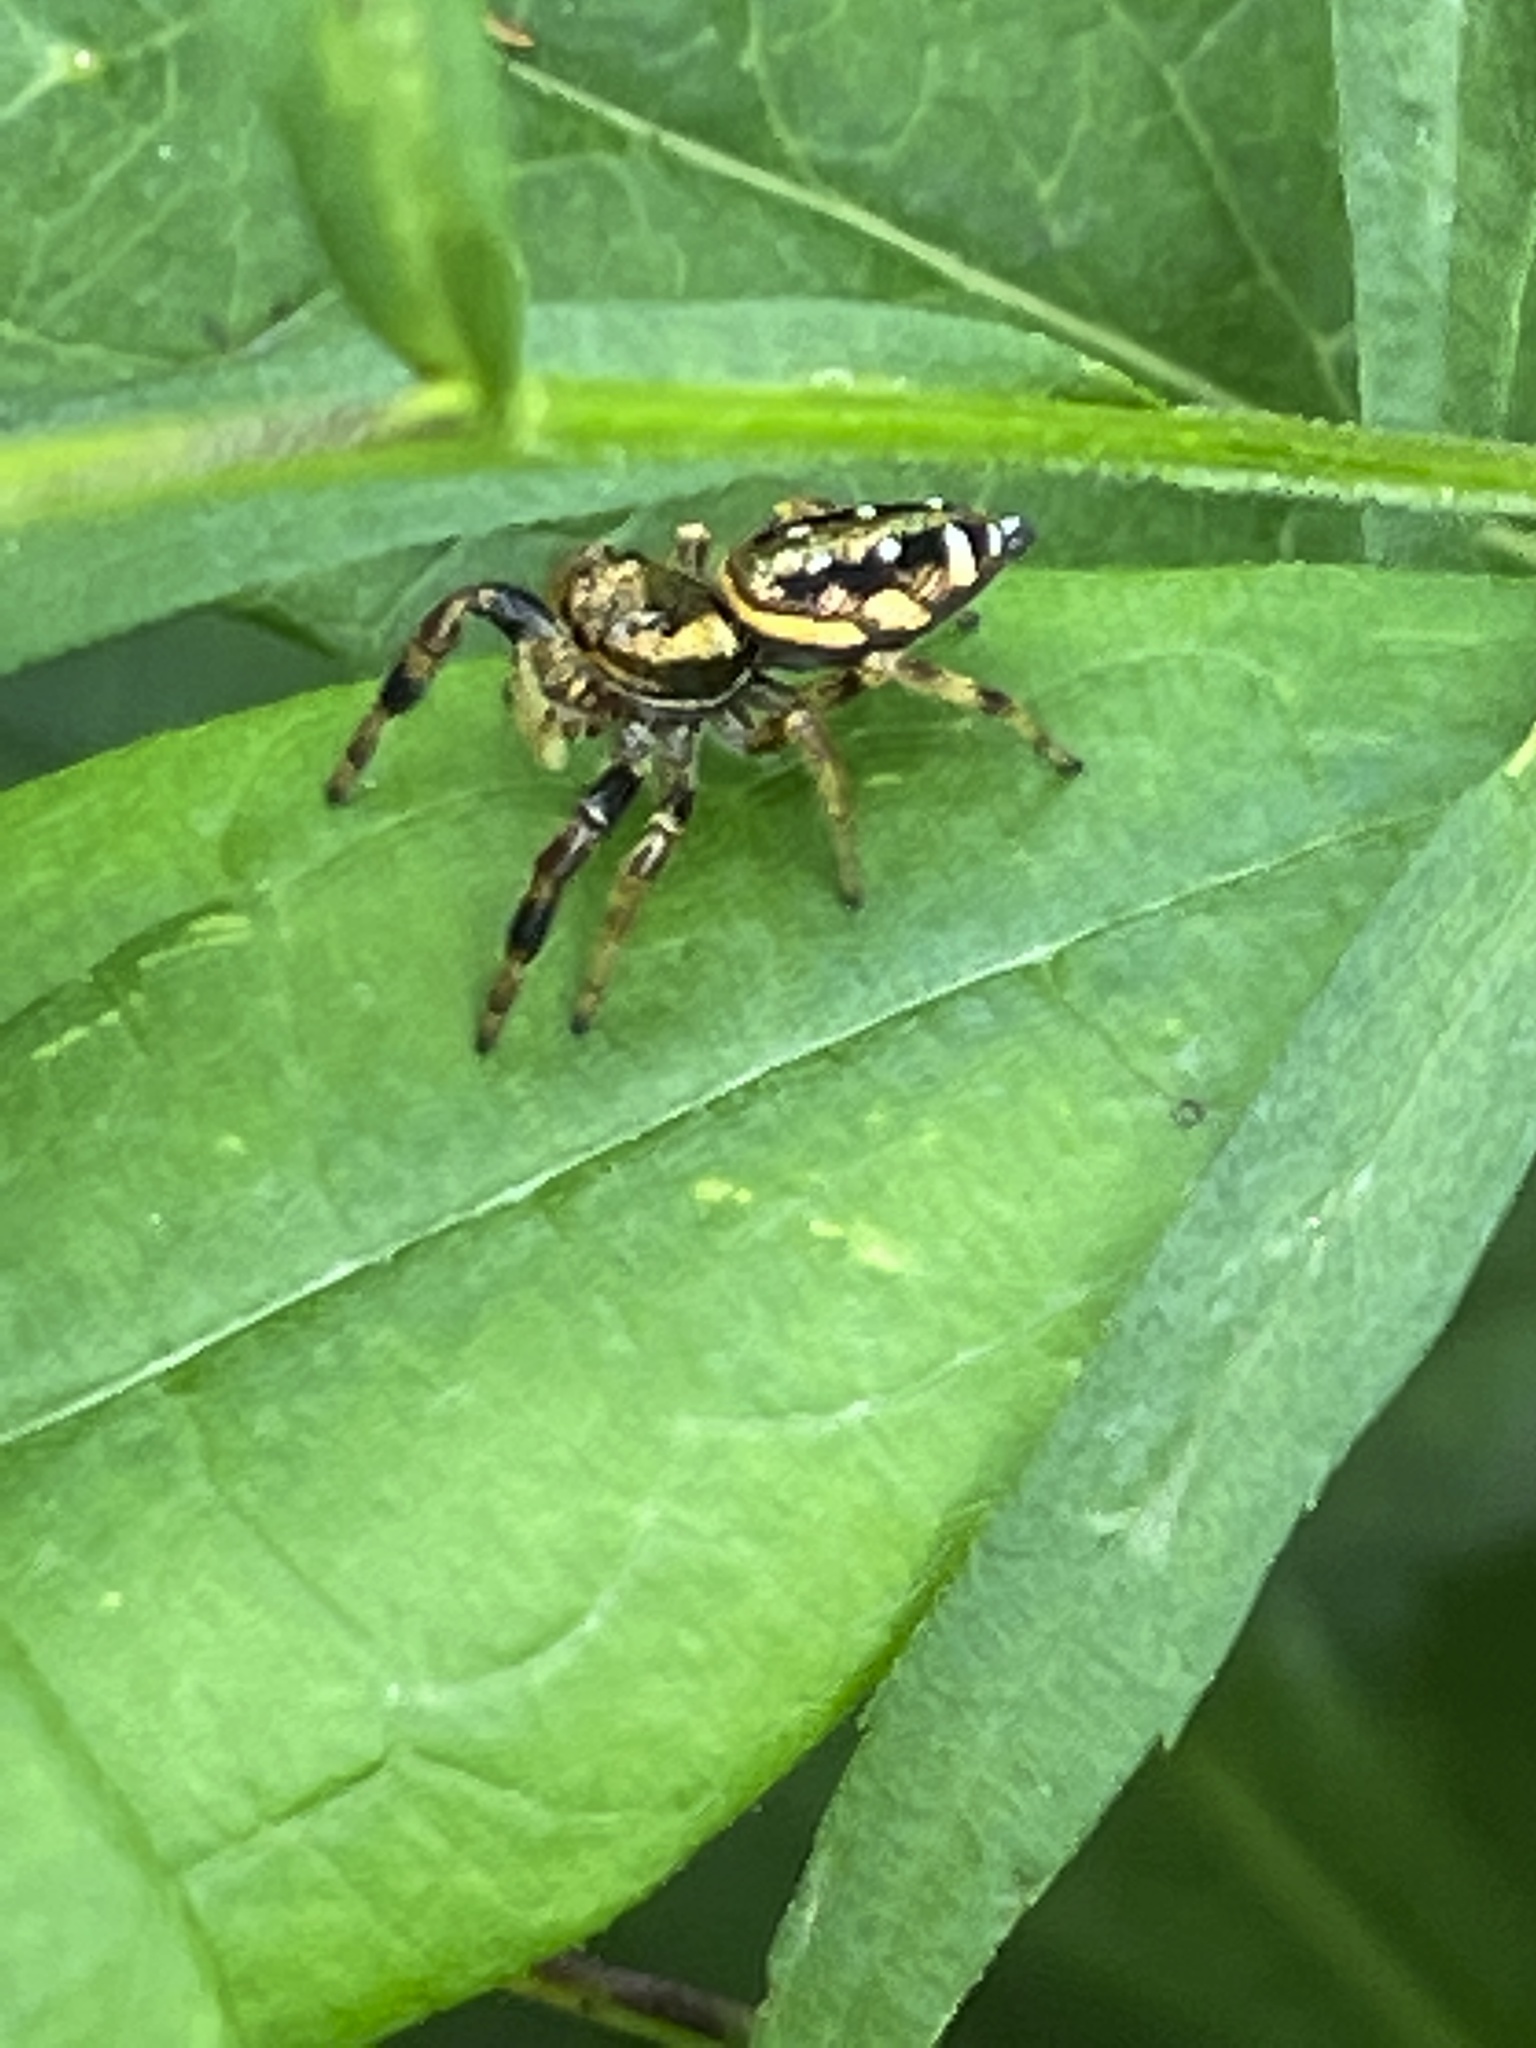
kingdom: Animalia
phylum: Arthropoda
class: Arachnida
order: Araneae
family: Salticidae
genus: Paraphidippus
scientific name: Paraphidippus aurantius
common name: Jumping spiders
